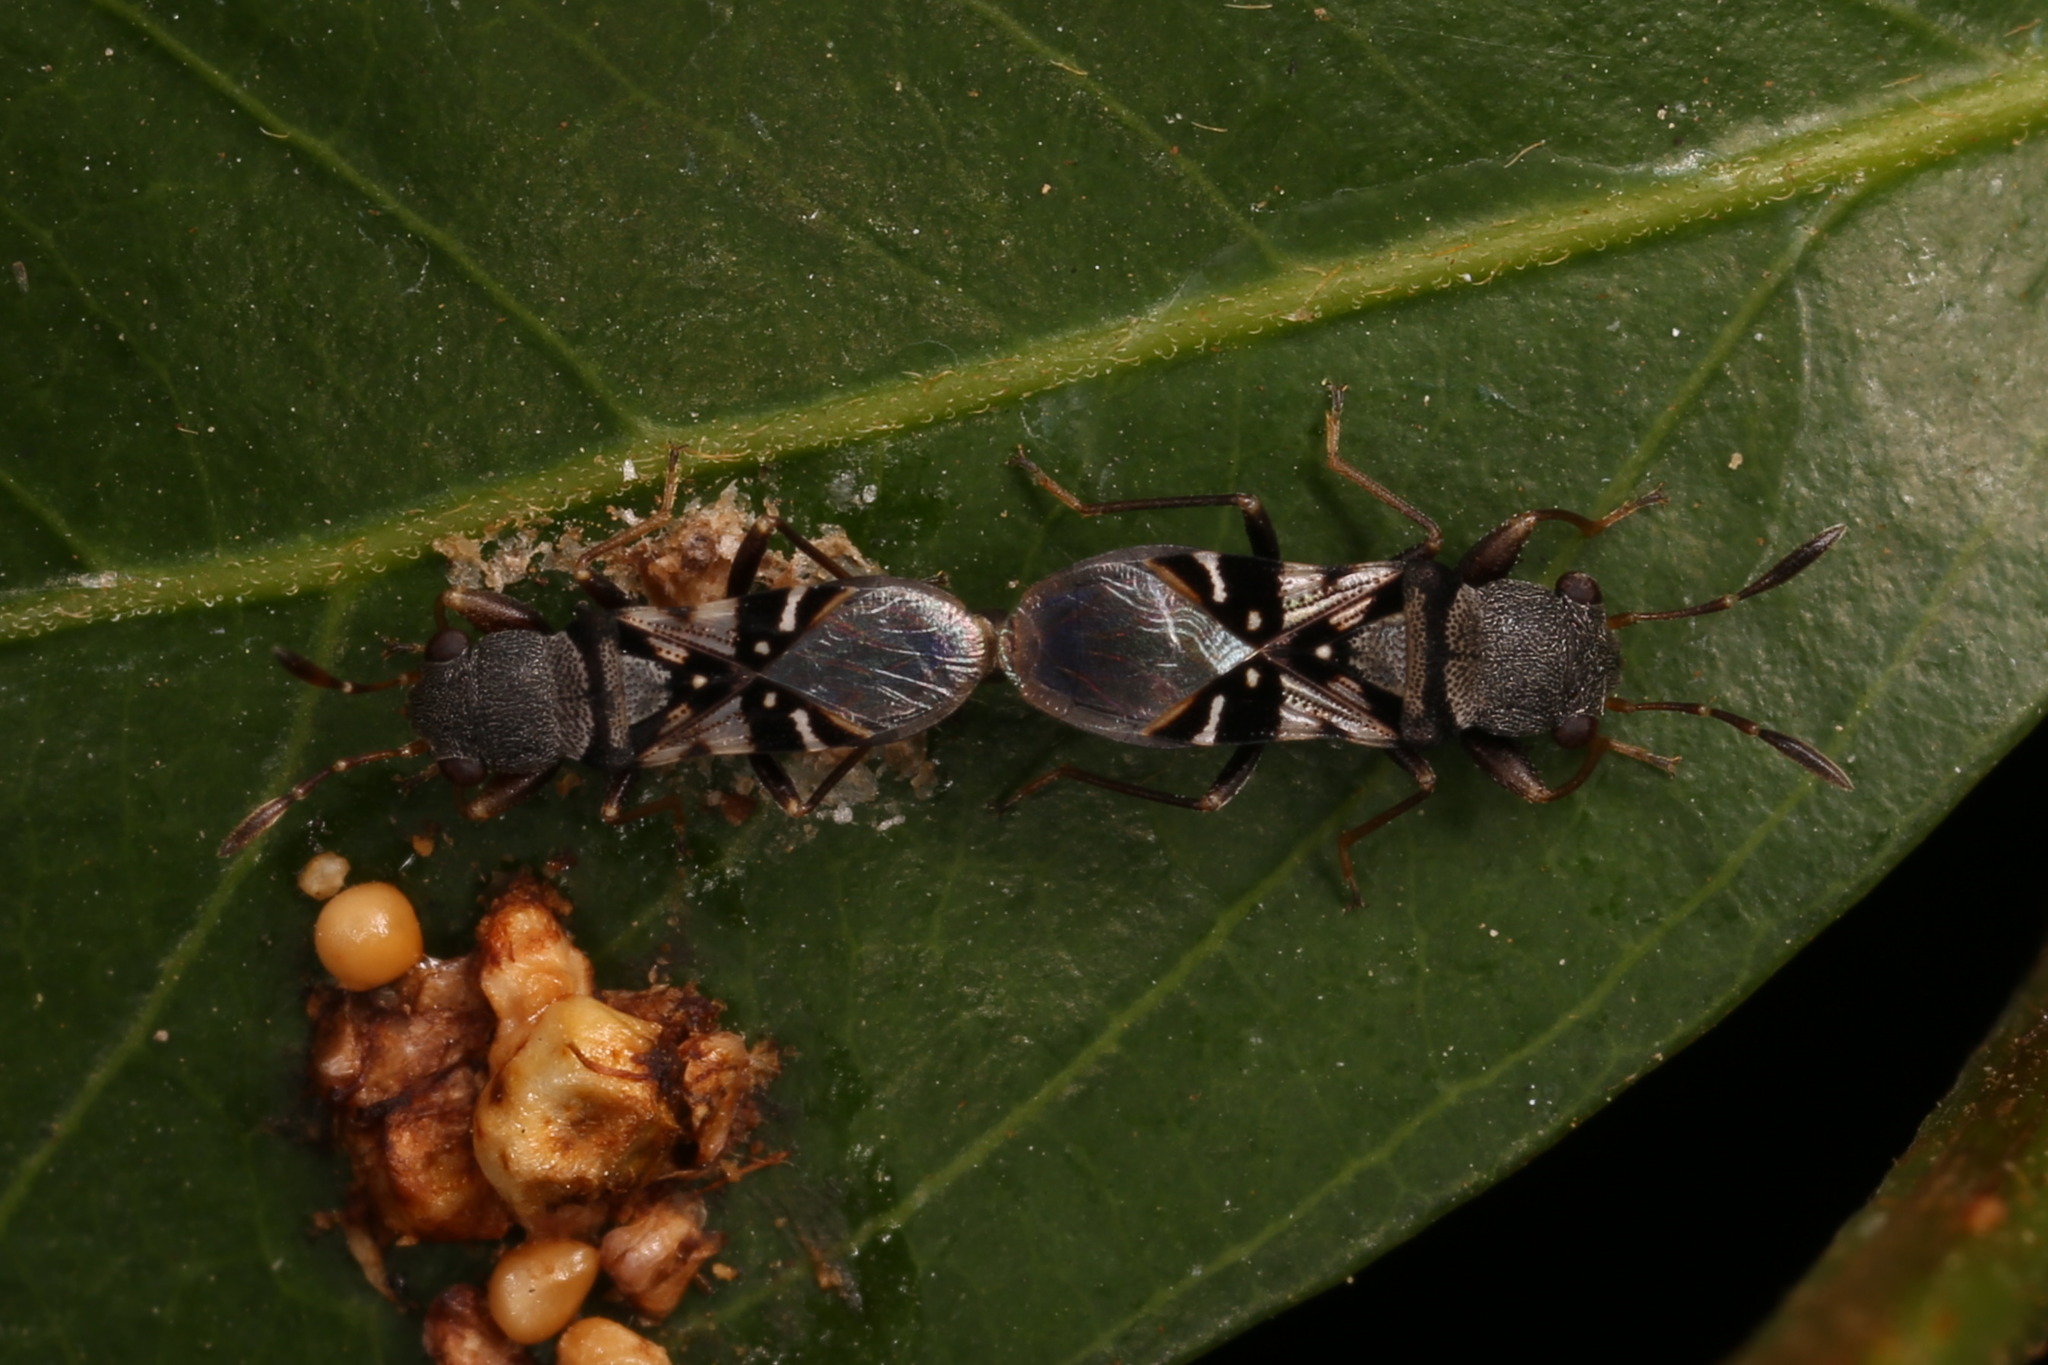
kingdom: Animalia
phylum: Arthropoda
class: Insecta
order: Hemiptera
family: Rhyparochromidae
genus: Paracholula
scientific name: Paracholula pictus
